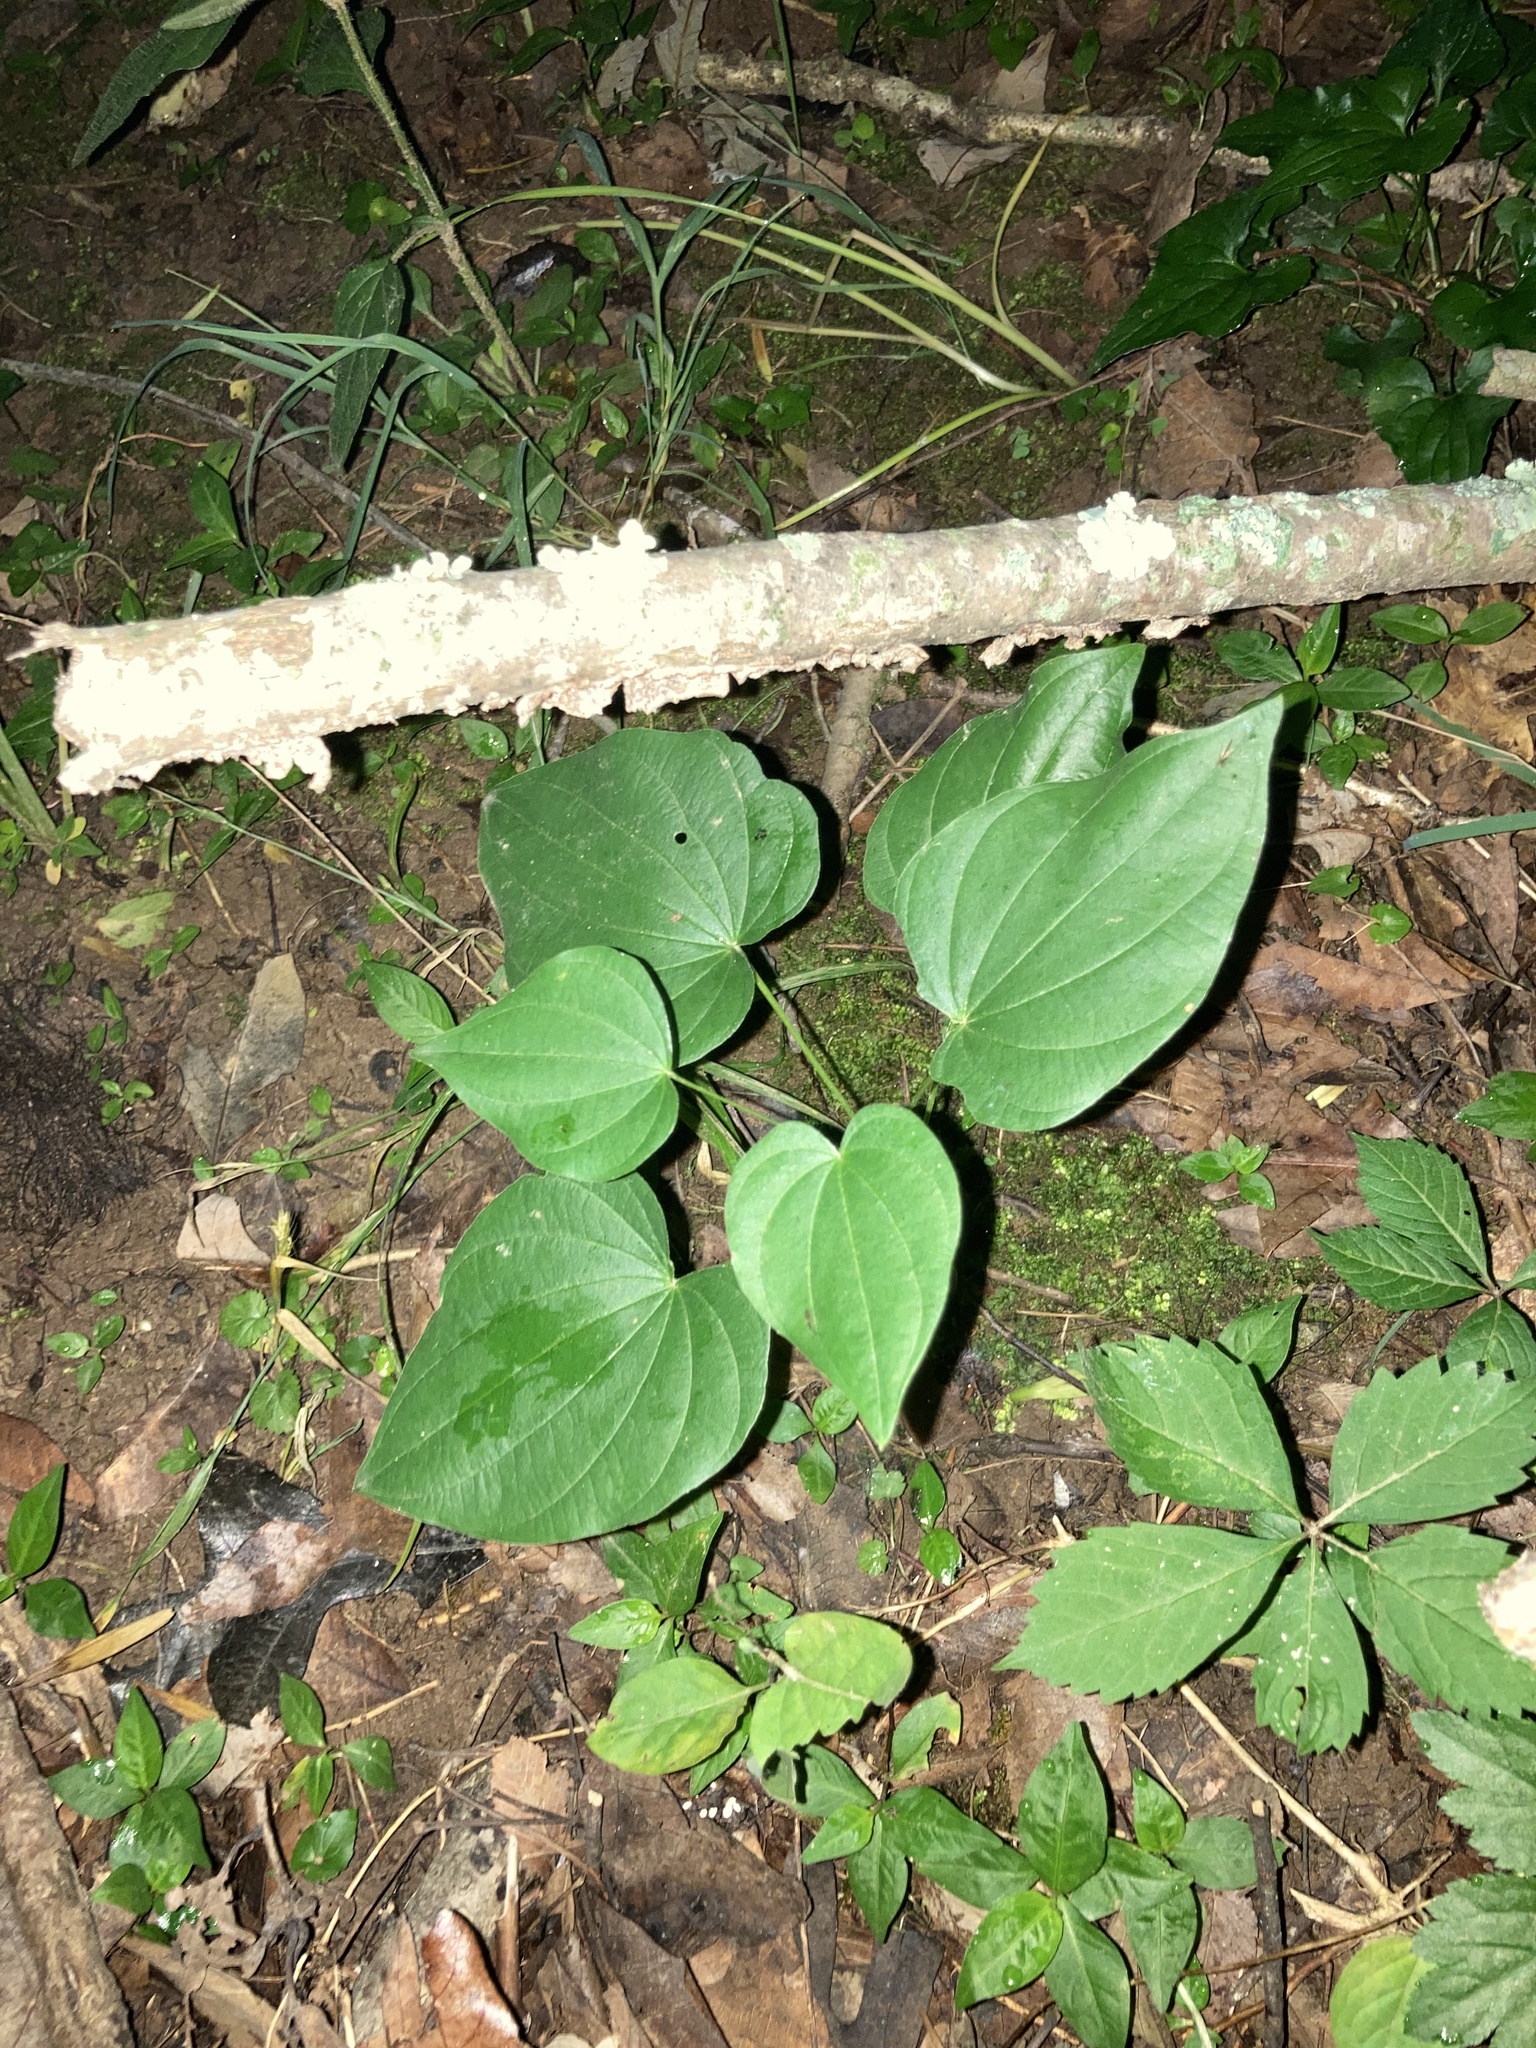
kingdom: Plantae
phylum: Tracheophyta
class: Liliopsida
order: Dioscoreales
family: Dioscoreaceae
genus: Dioscorea
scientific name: Dioscorea villosa
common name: Wild yam
